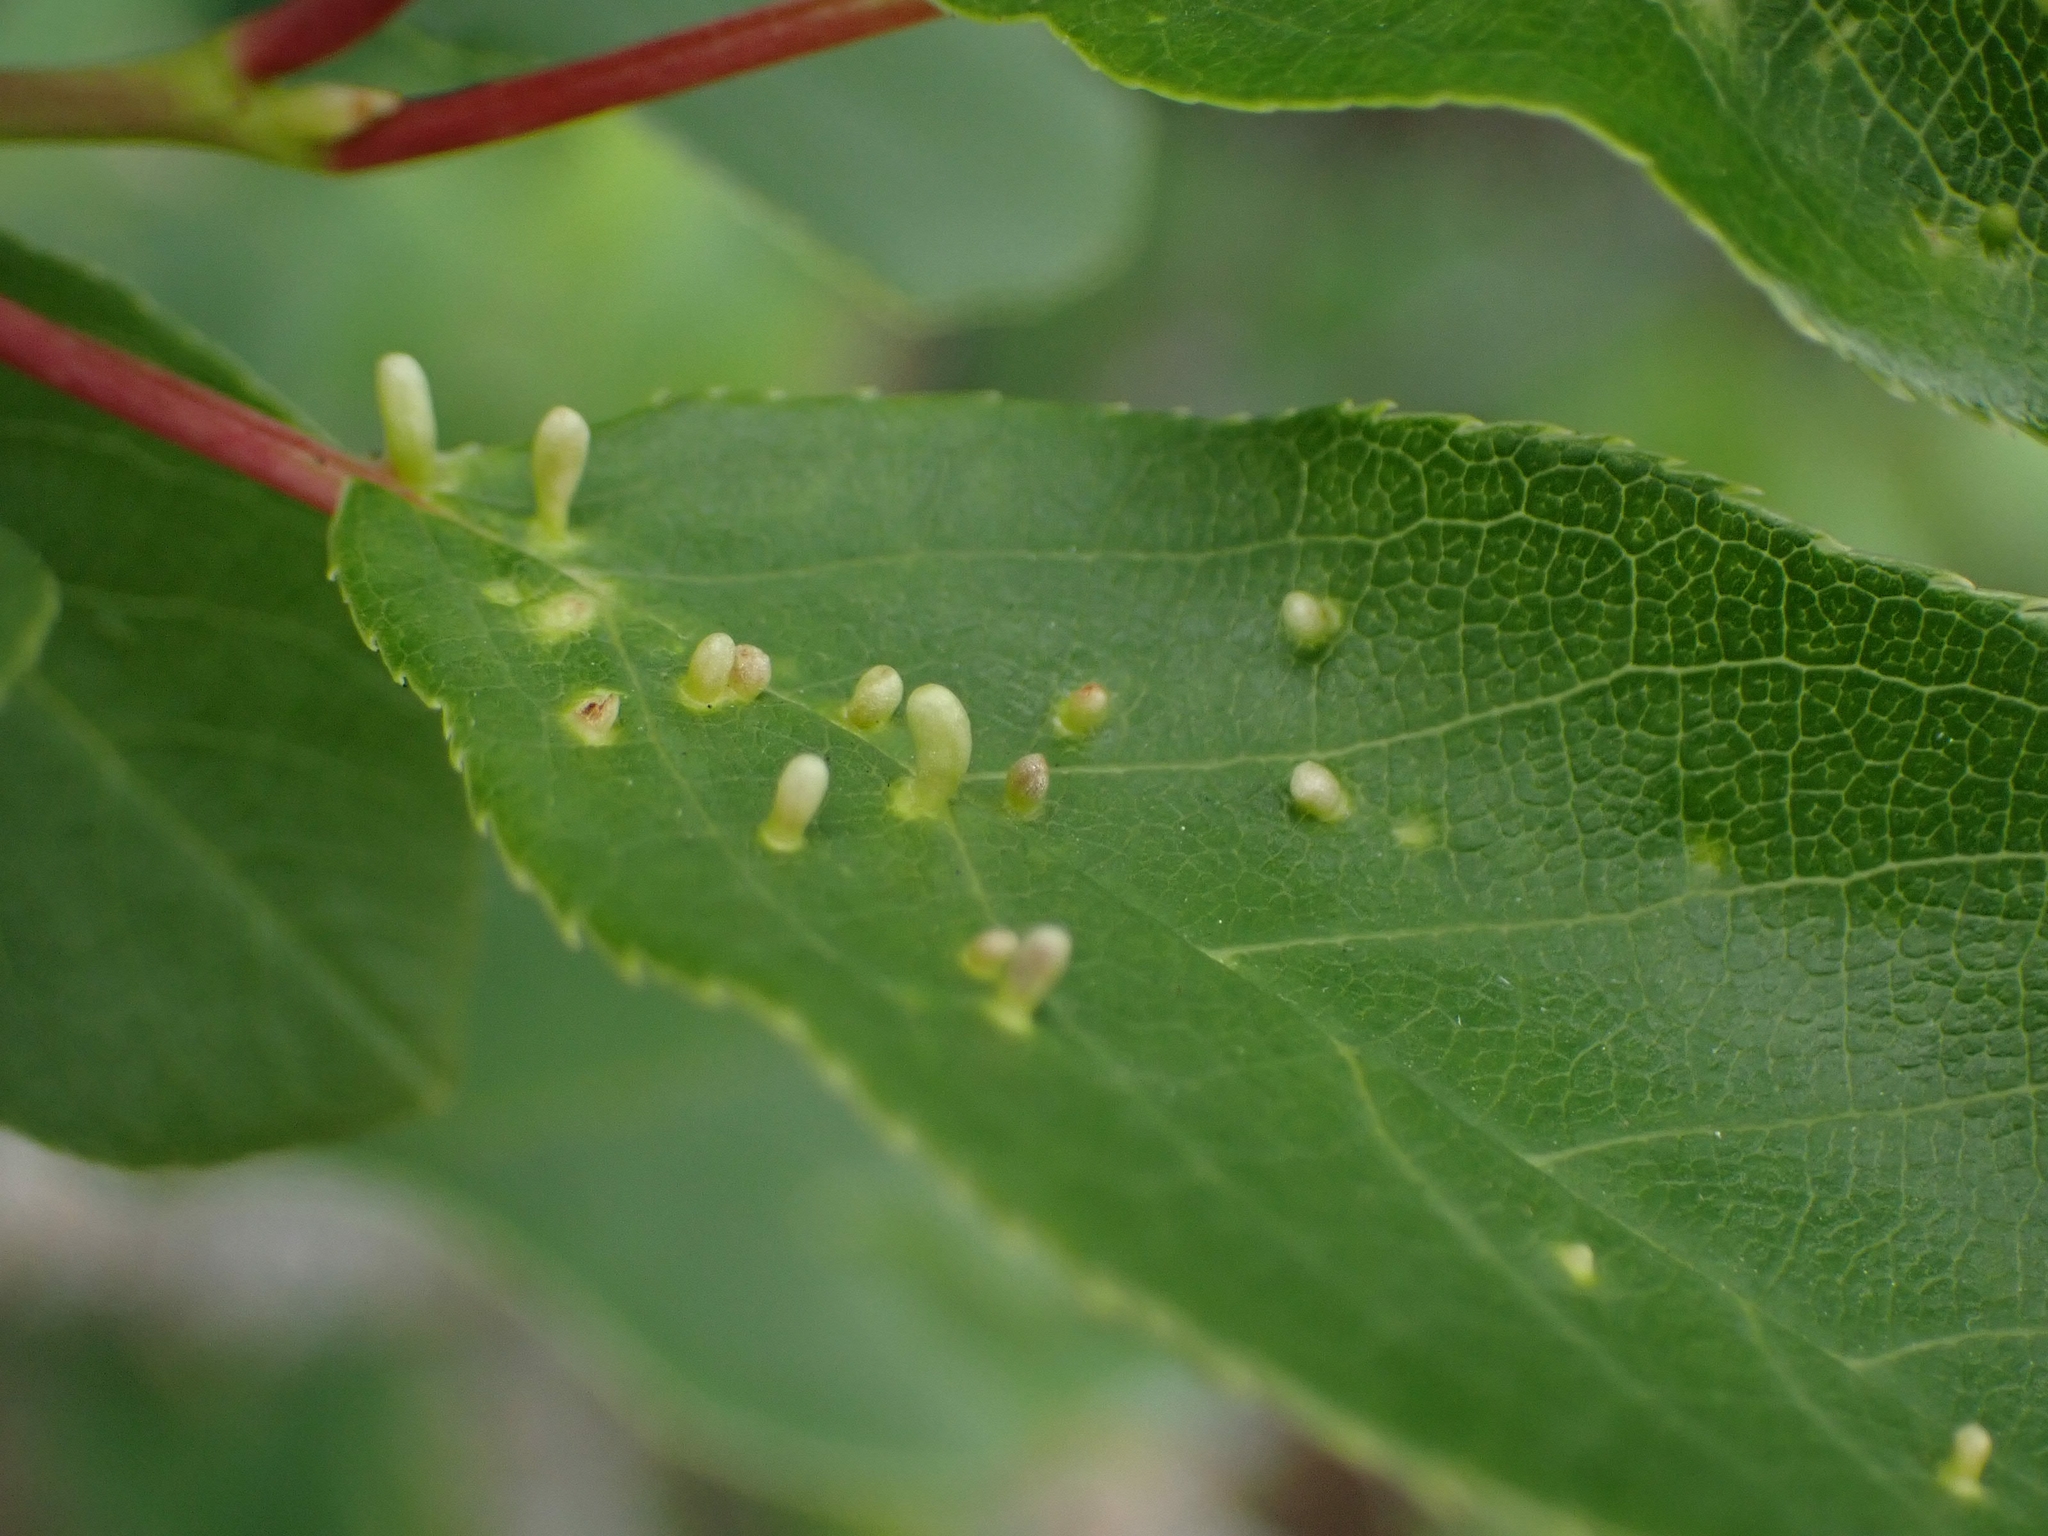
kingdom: Animalia
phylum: Arthropoda
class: Arachnida
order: Trombidiformes
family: Eriophyidae
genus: Eriophyes
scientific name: Eriophyes emarginatae
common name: Plum leaf gall mite
